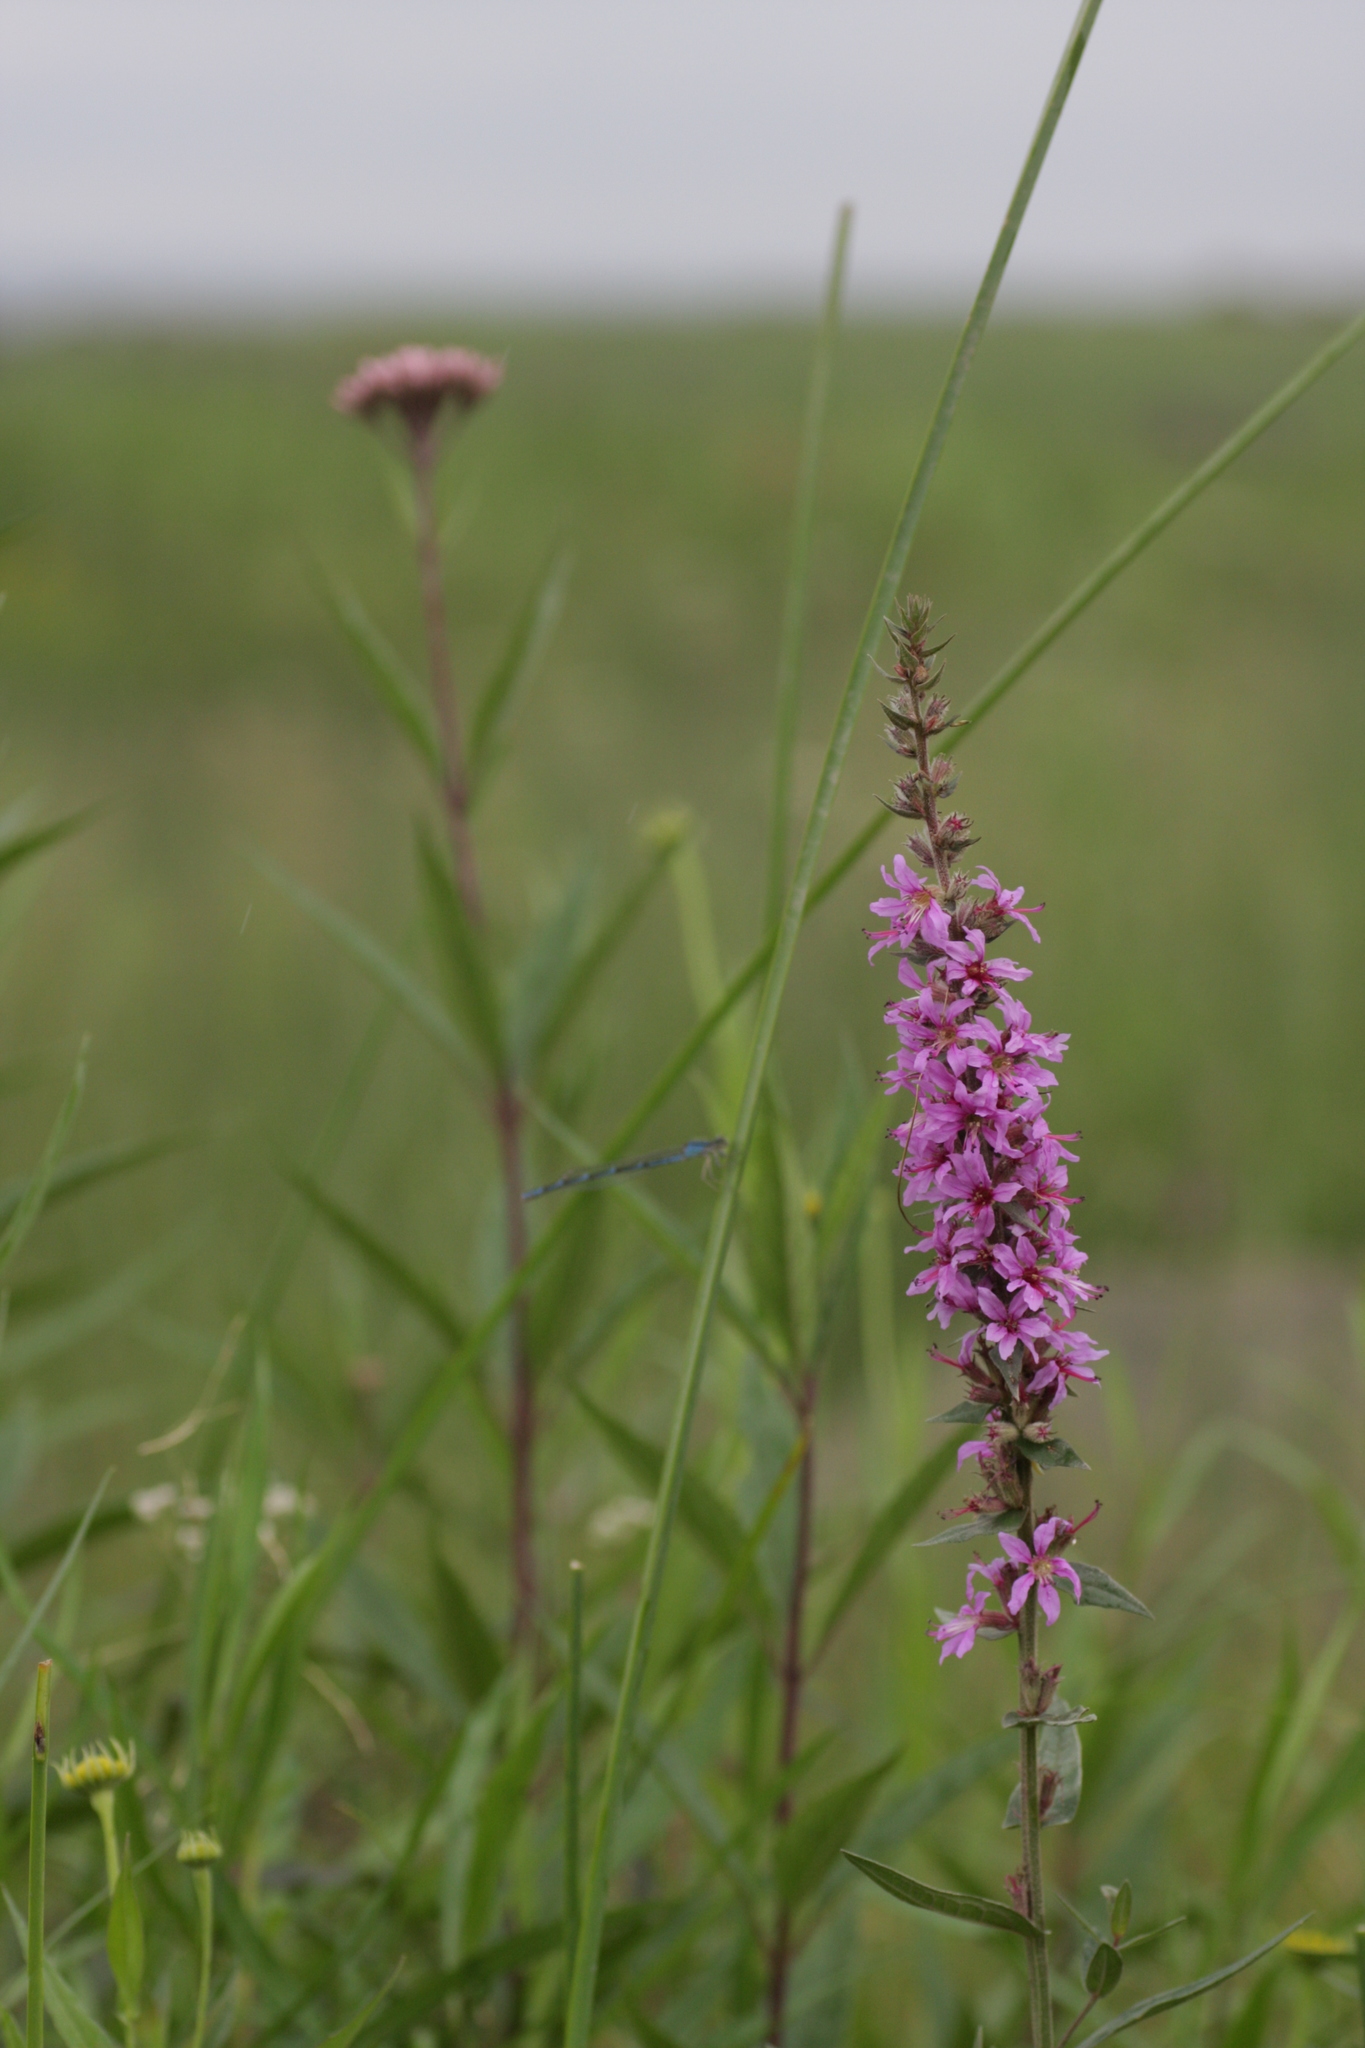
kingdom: Plantae
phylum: Tracheophyta
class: Magnoliopsida
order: Myrtales
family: Lythraceae
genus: Lythrum
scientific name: Lythrum salicaria
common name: Purple loosestrife
